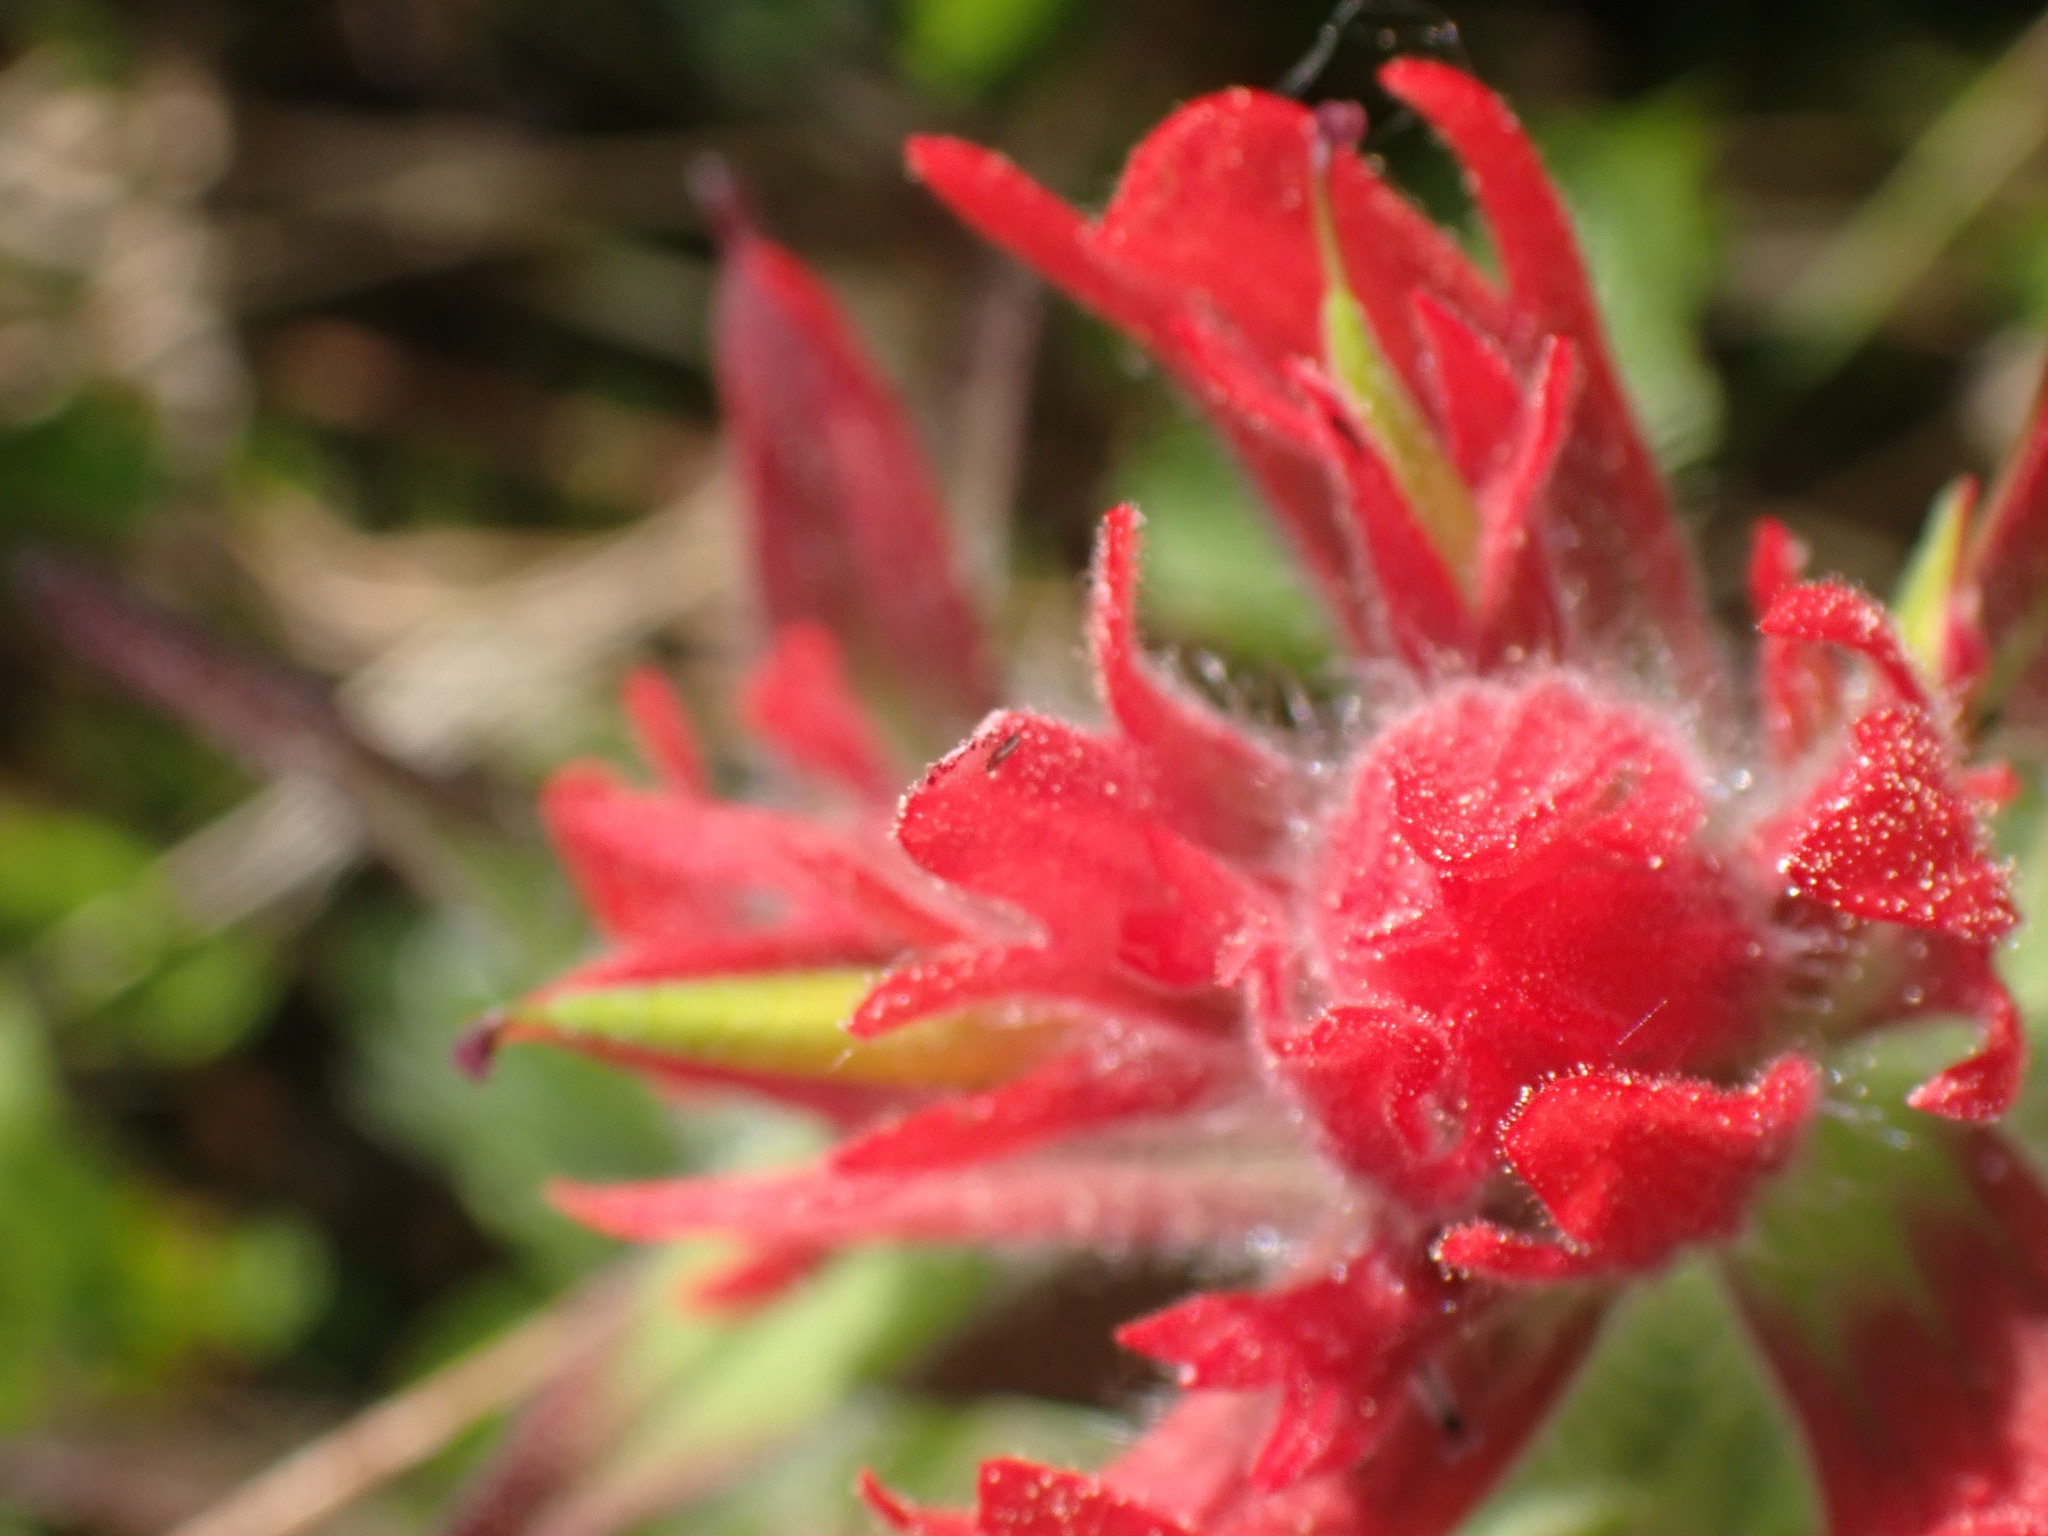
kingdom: Plantae
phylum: Tracheophyta
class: Magnoliopsida
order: Lamiales
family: Orobanchaceae
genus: Castilleja
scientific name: Castilleja miniata
